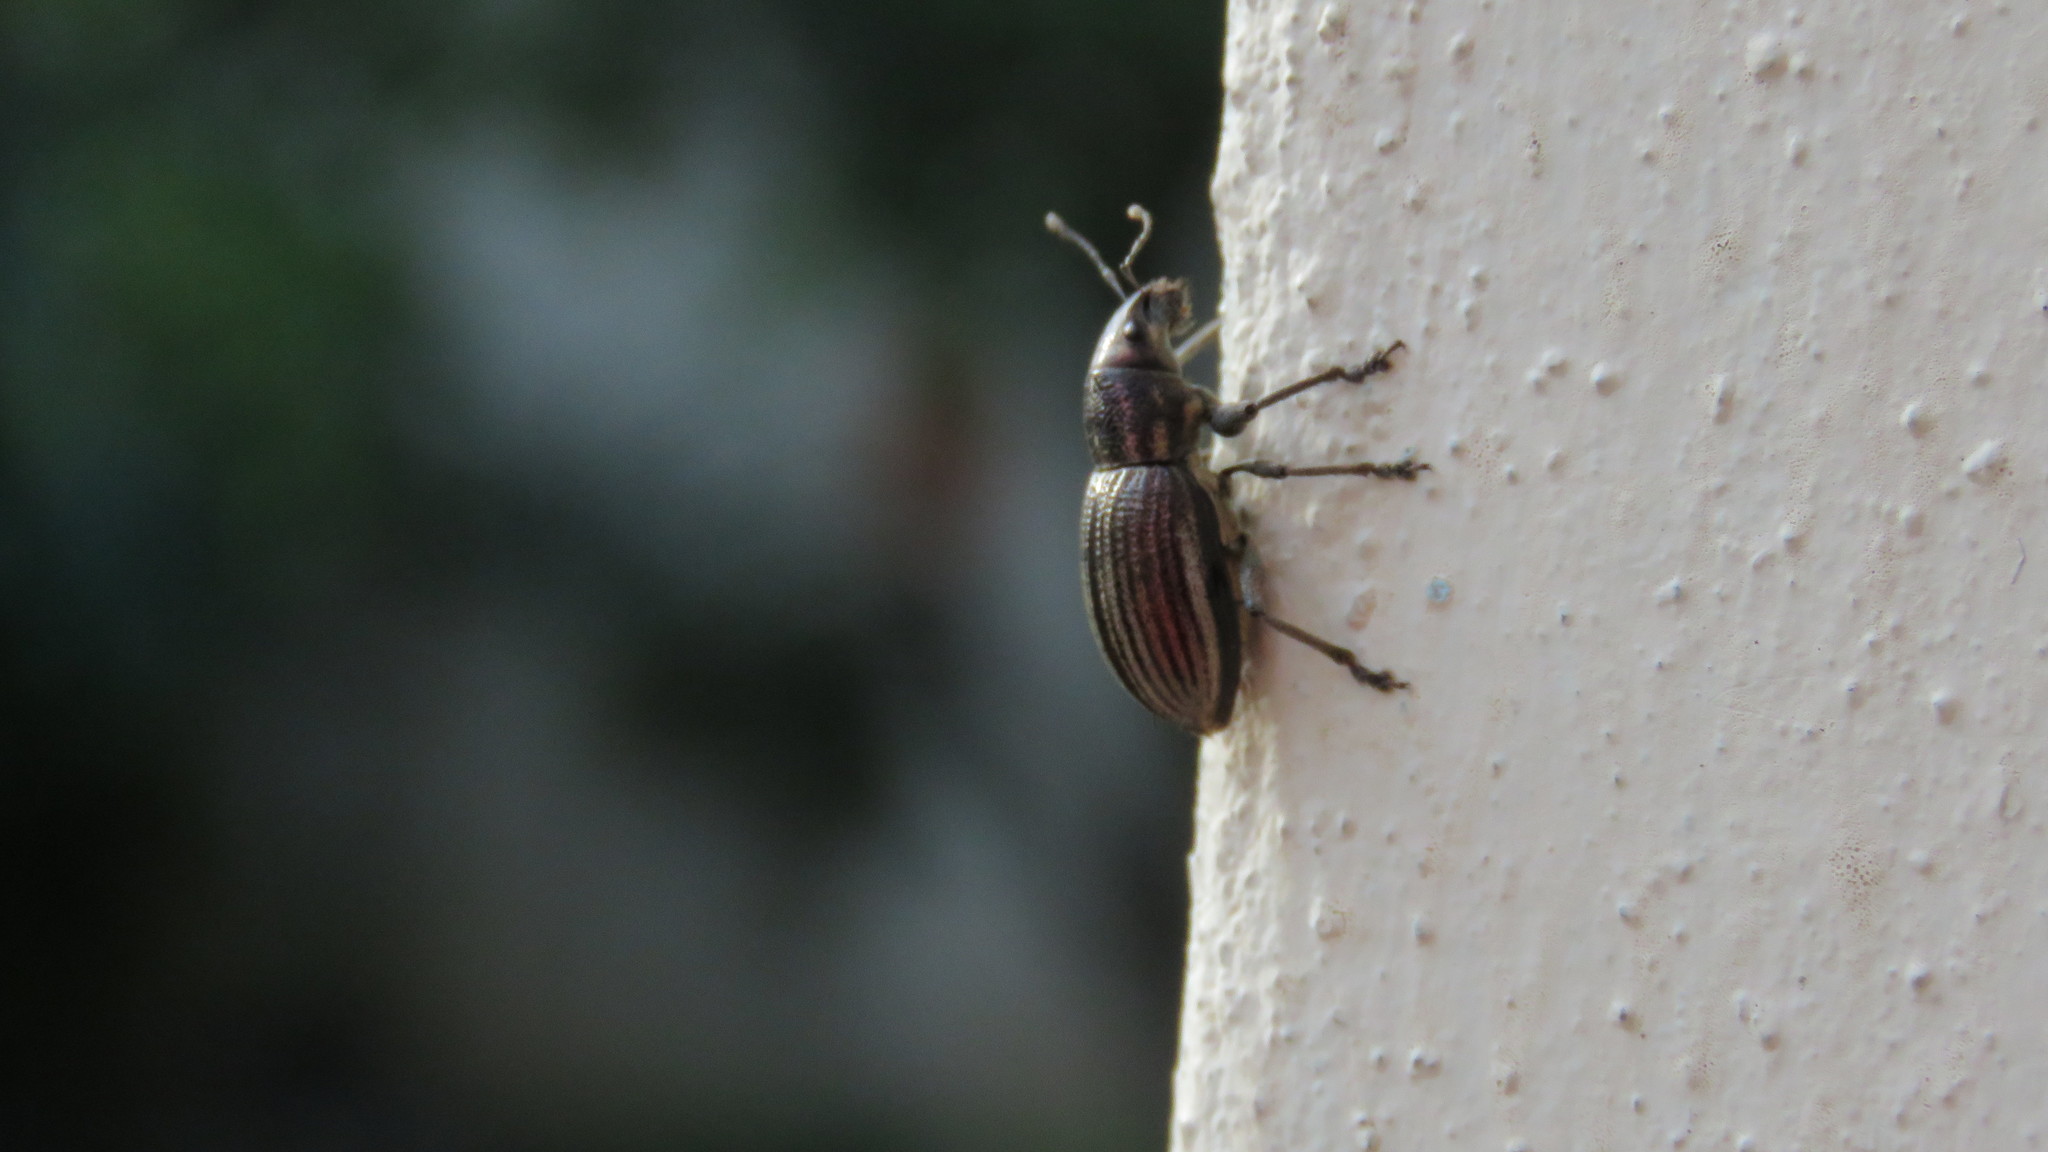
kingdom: Animalia
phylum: Arthropoda
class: Insecta
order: Coleoptera
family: Curculionidae
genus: Naupactus
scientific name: Naupactus tremolerasi
